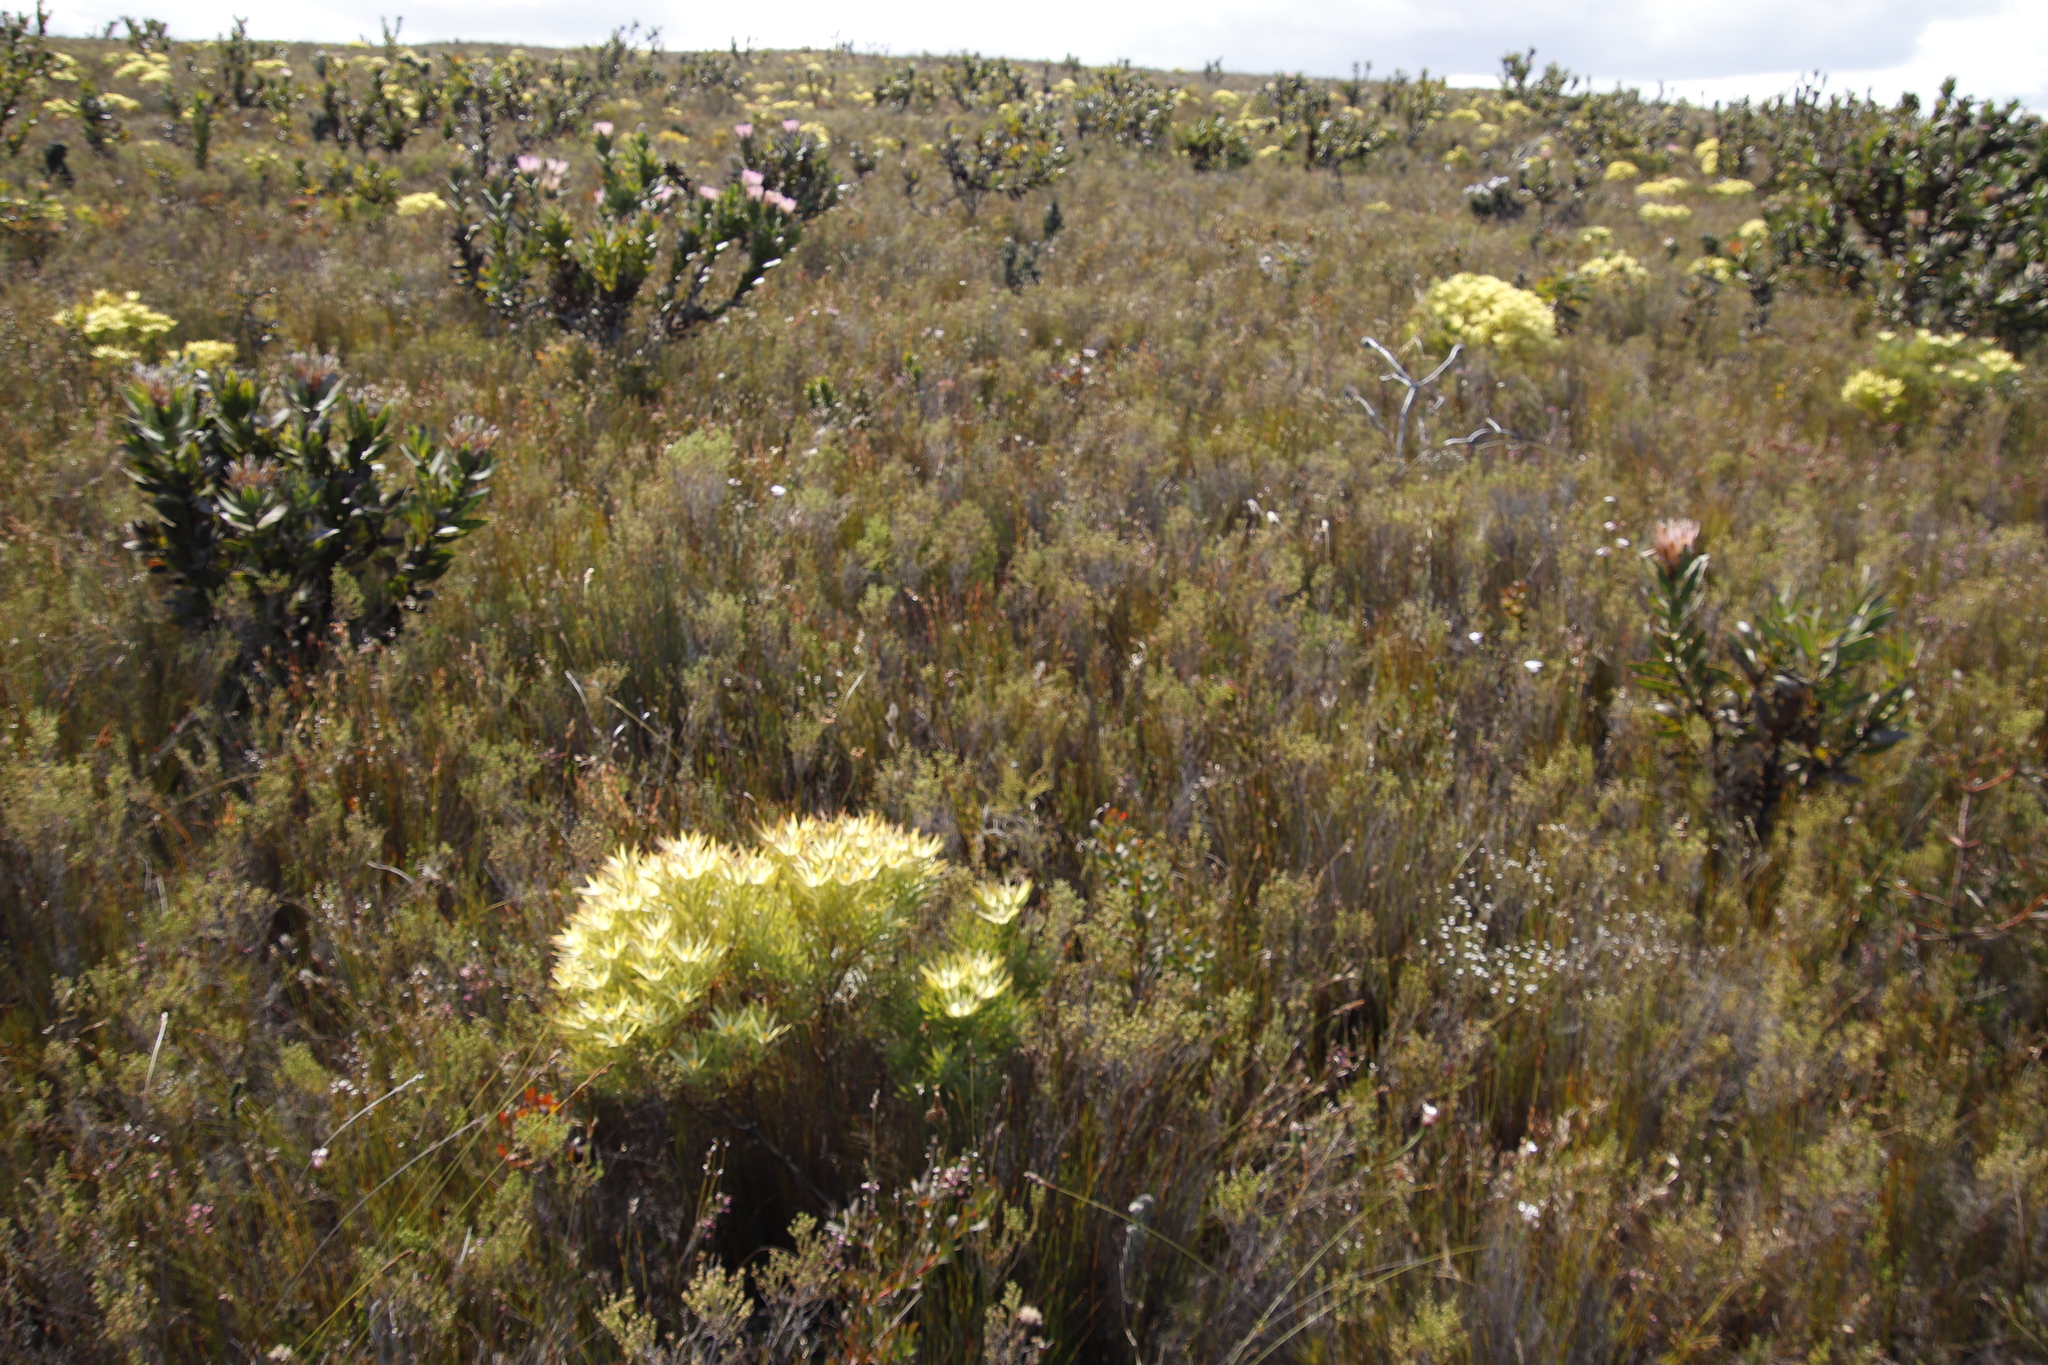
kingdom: Plantae
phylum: Tracheophyta
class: Magnoliopsida
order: Proteales
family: Proteaceae
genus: Leucadendron
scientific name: Leucadendron xanthoconus
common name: Sickle-leaf conebush
